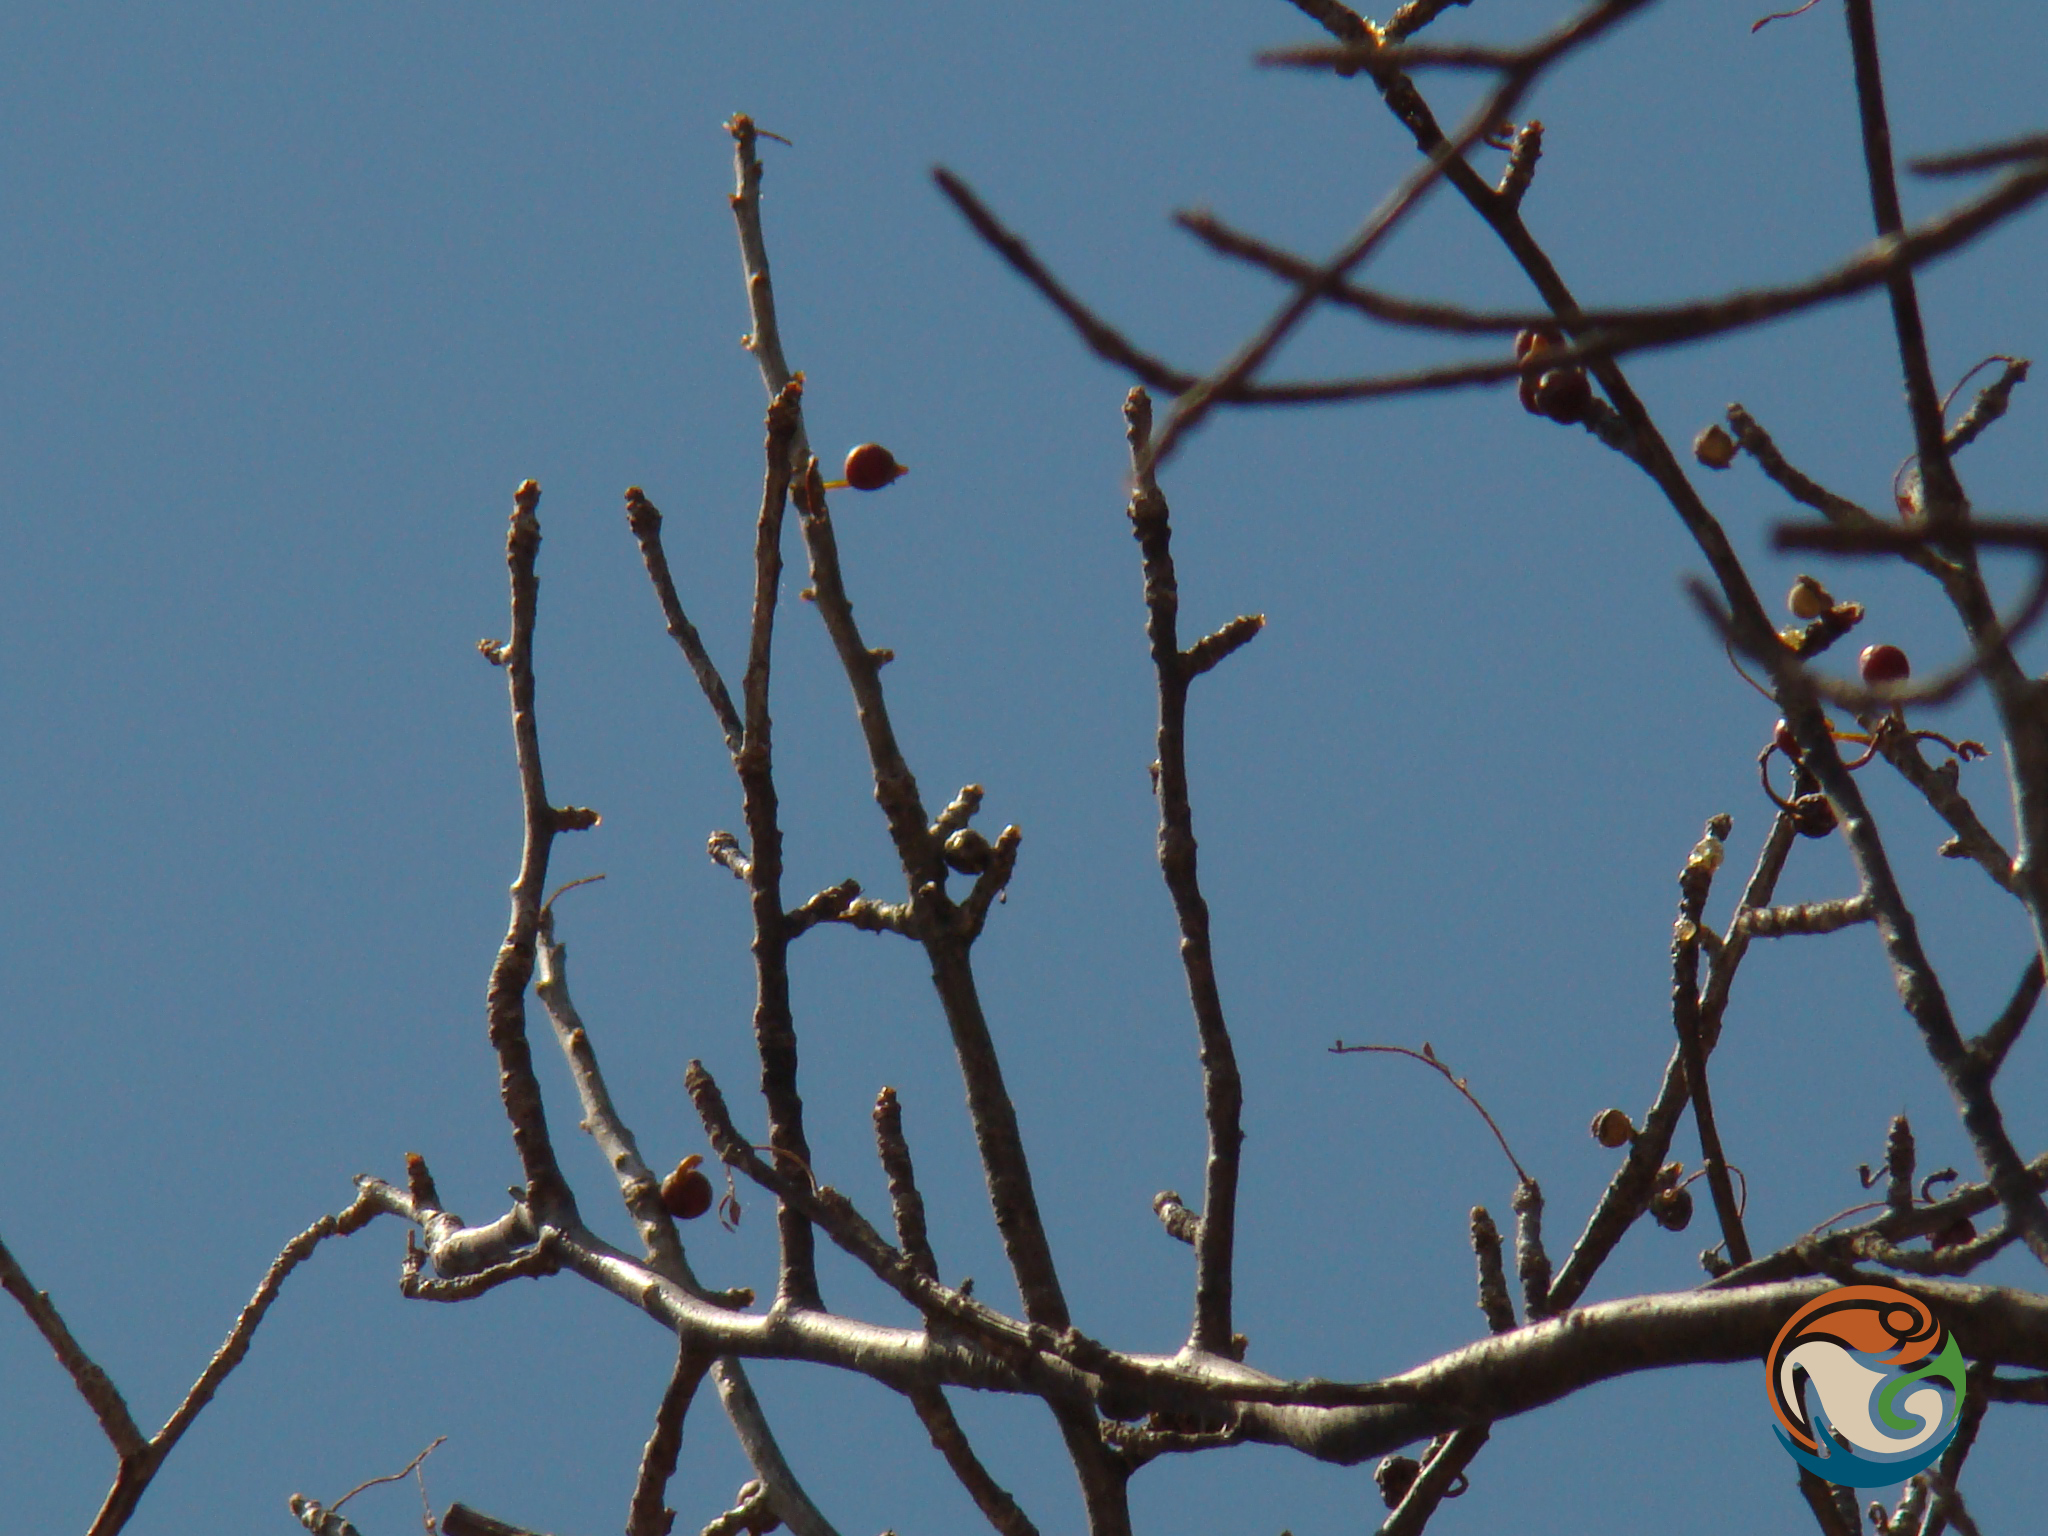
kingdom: Plantae
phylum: Tracheophyta
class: Magnoliopsida
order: Sapindales
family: Burseraceae
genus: Bursera
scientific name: Bursera morelensis
